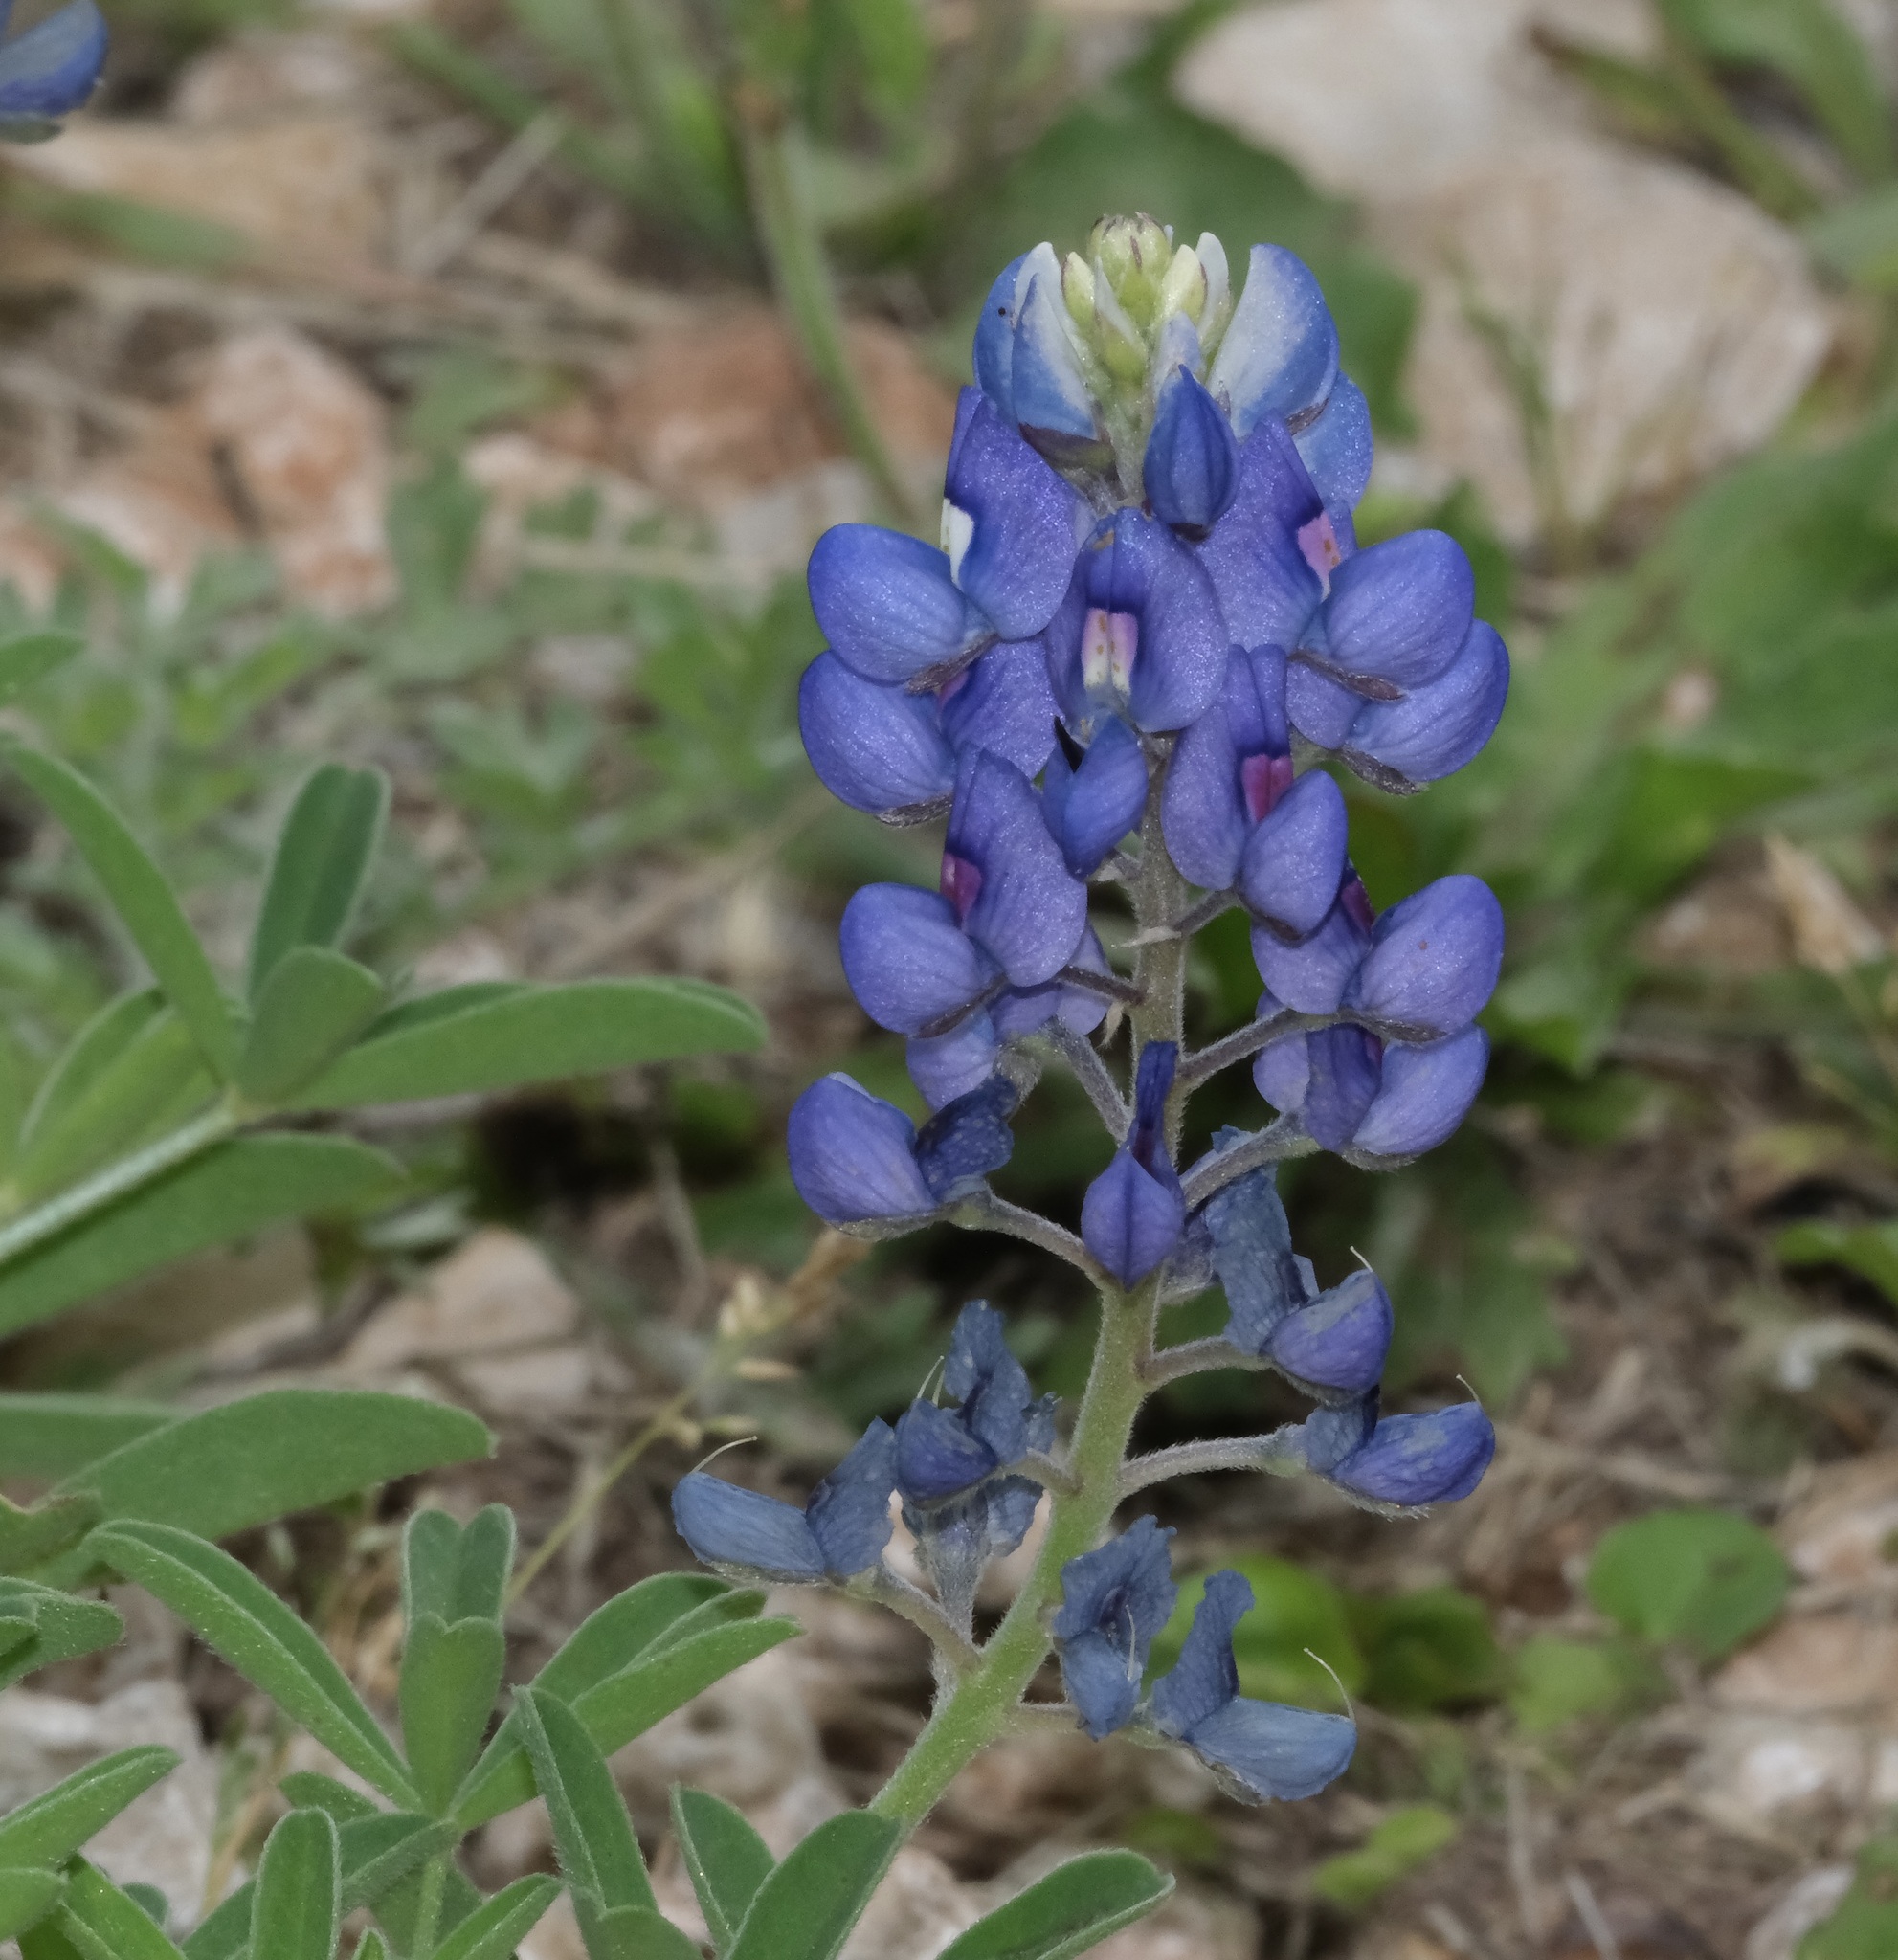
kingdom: Plantae
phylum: Tracheophyta
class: Magnoliopsida
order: Fabales
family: Fabaceae
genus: Lupinus
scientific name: Lupinus texensis
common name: Texas bluebonnet
